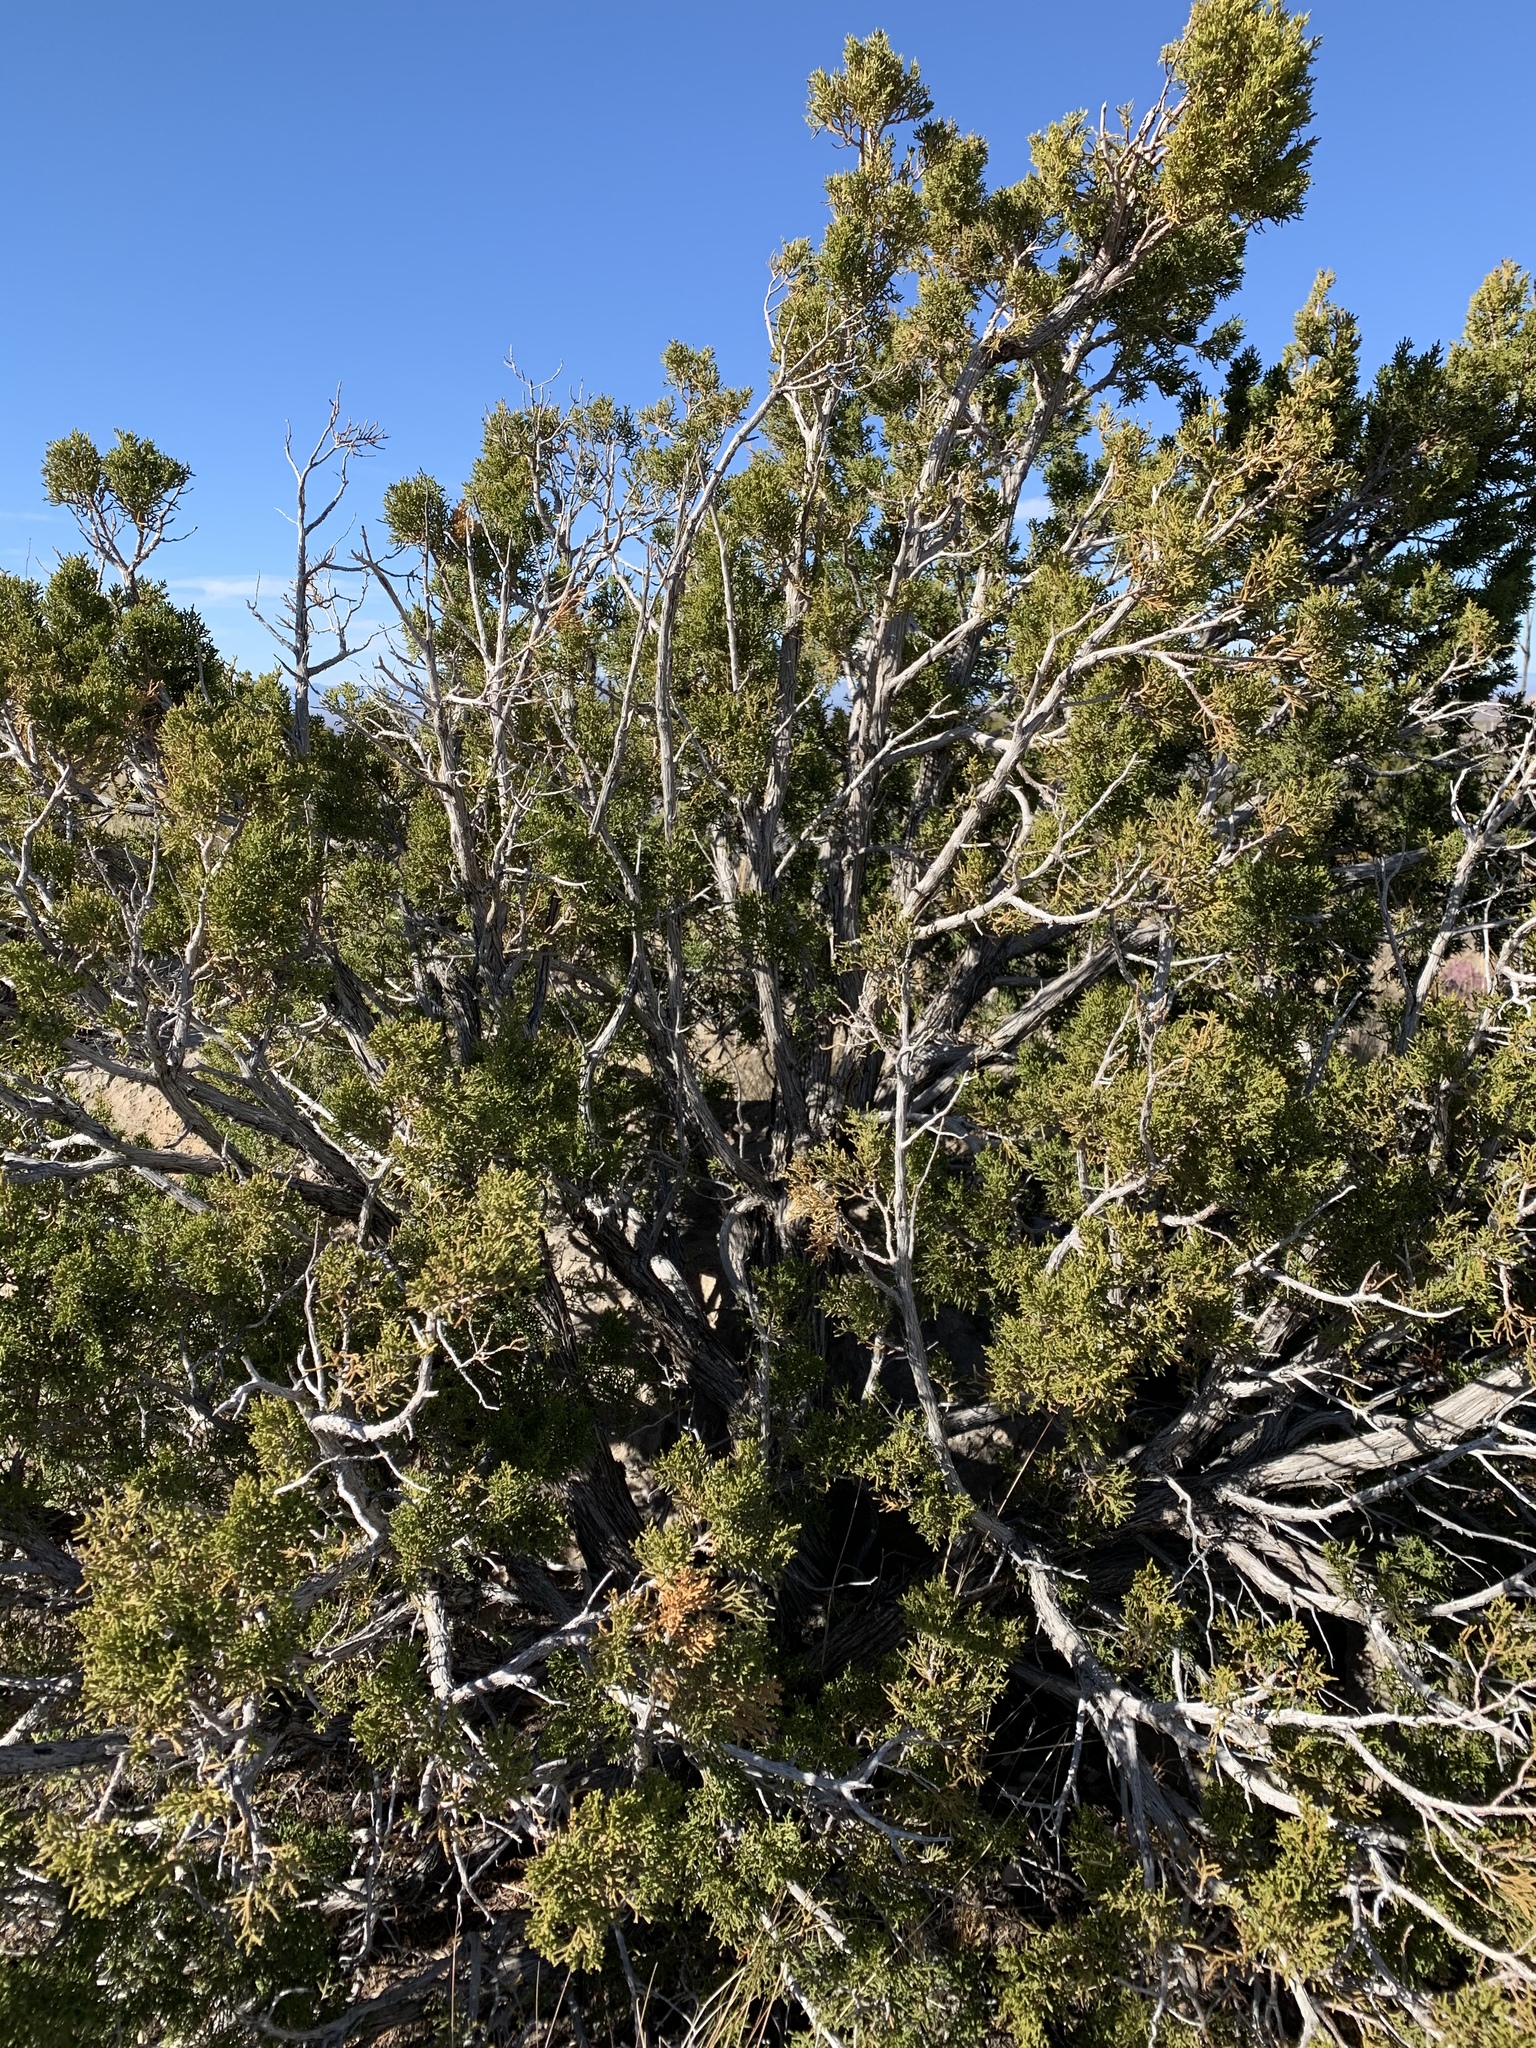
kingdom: Plantae
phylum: Tracheophyta
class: Pinopsida
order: Pinales
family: Cupressaceae
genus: Juniperus
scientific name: Juniperus monosperma
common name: One-seed juniper
